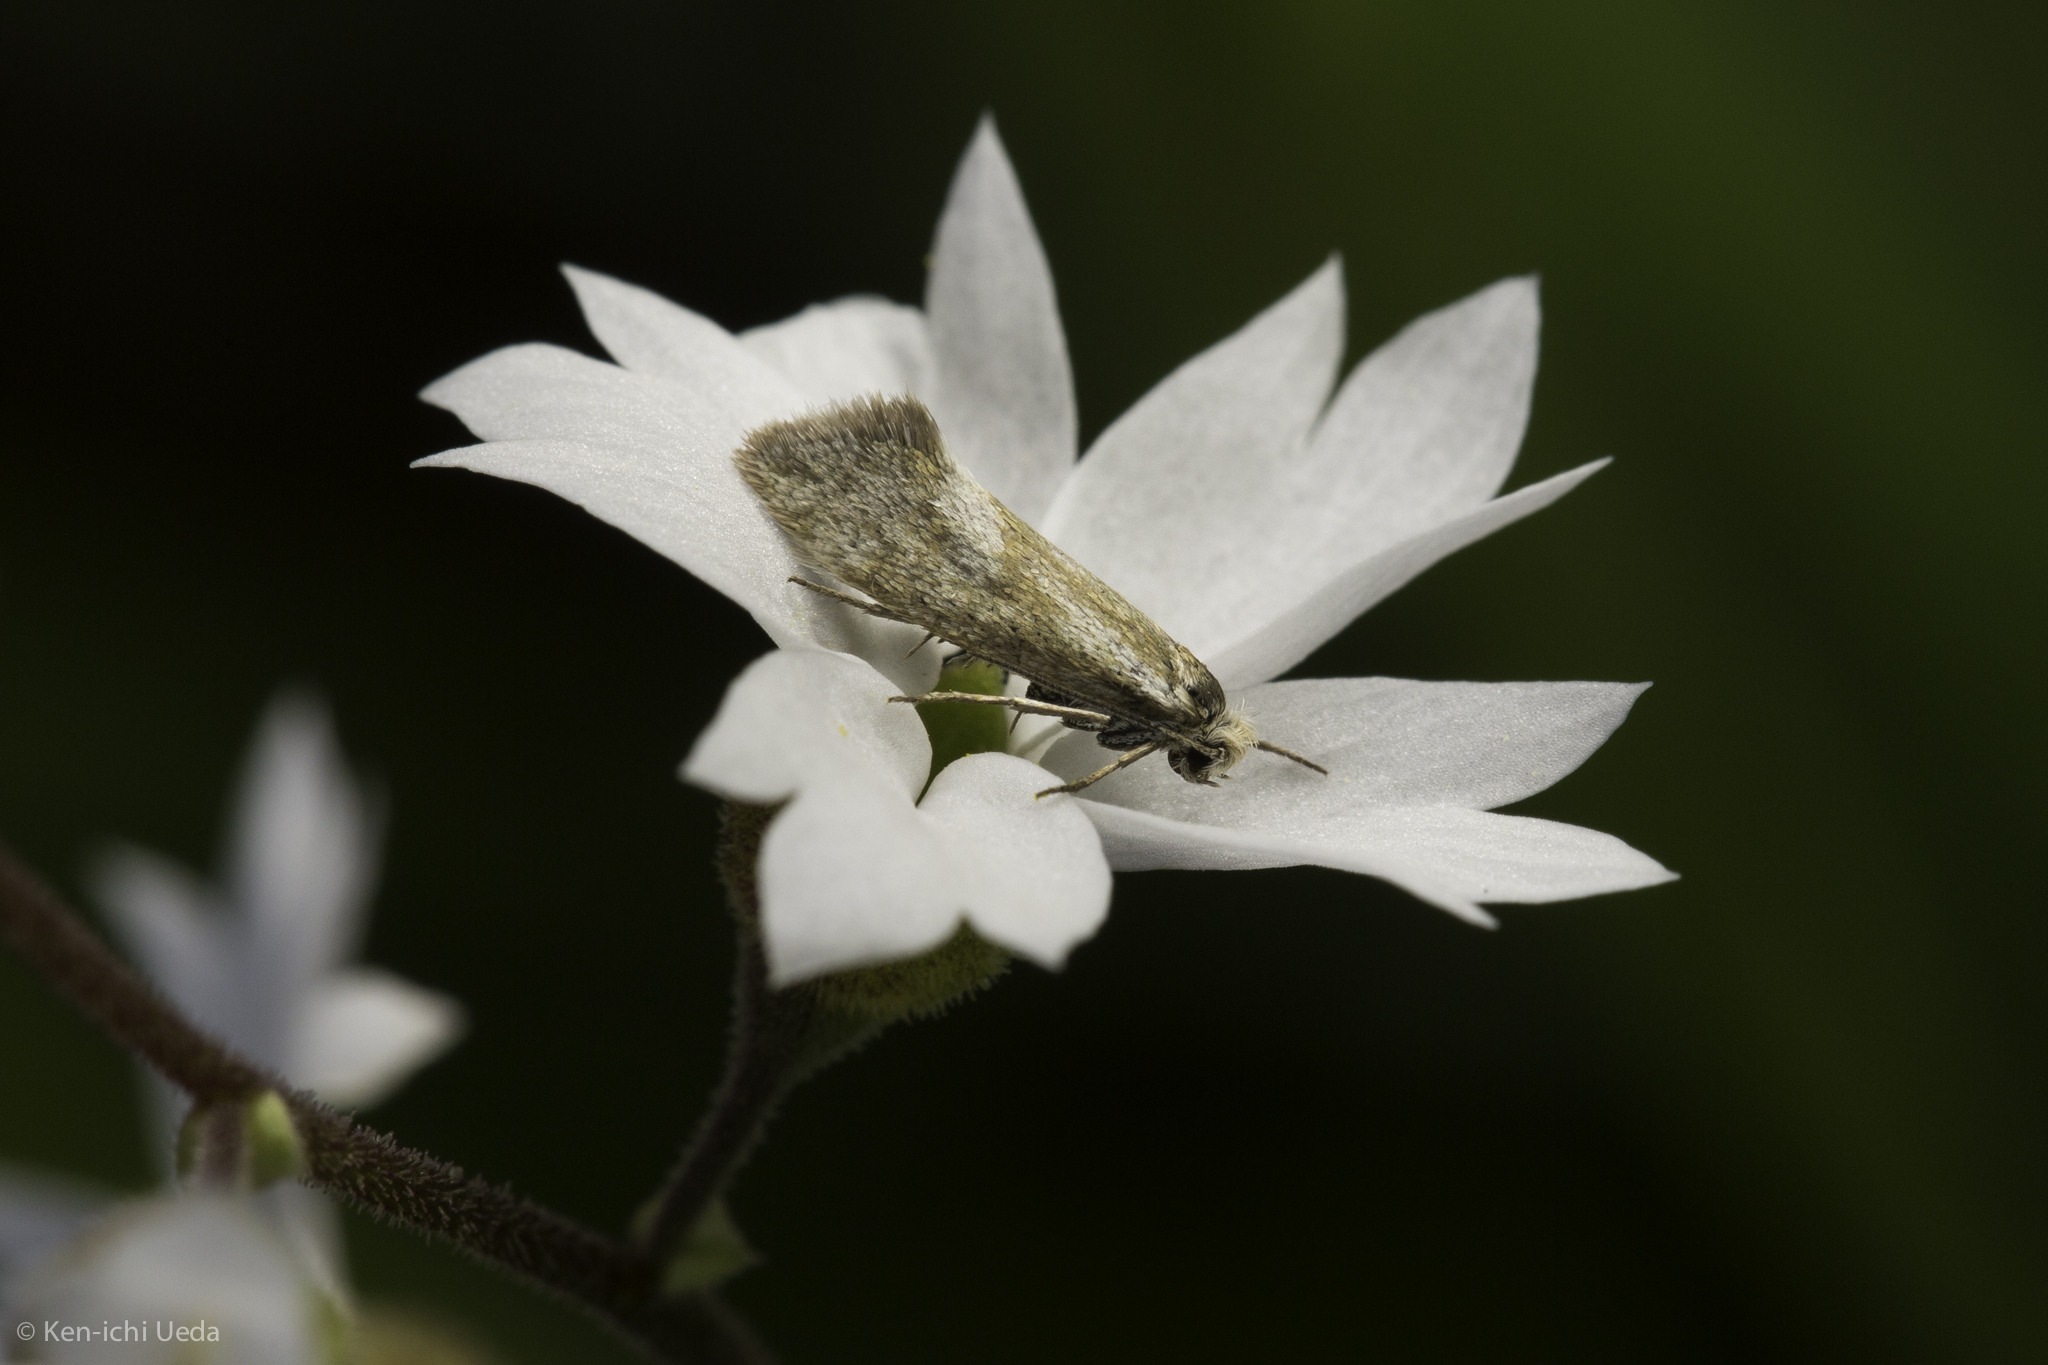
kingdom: Animalia
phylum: Arthropoda
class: Insecta
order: Lepidoptera
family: Prodoxidae
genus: Greya
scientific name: Greya obscura
